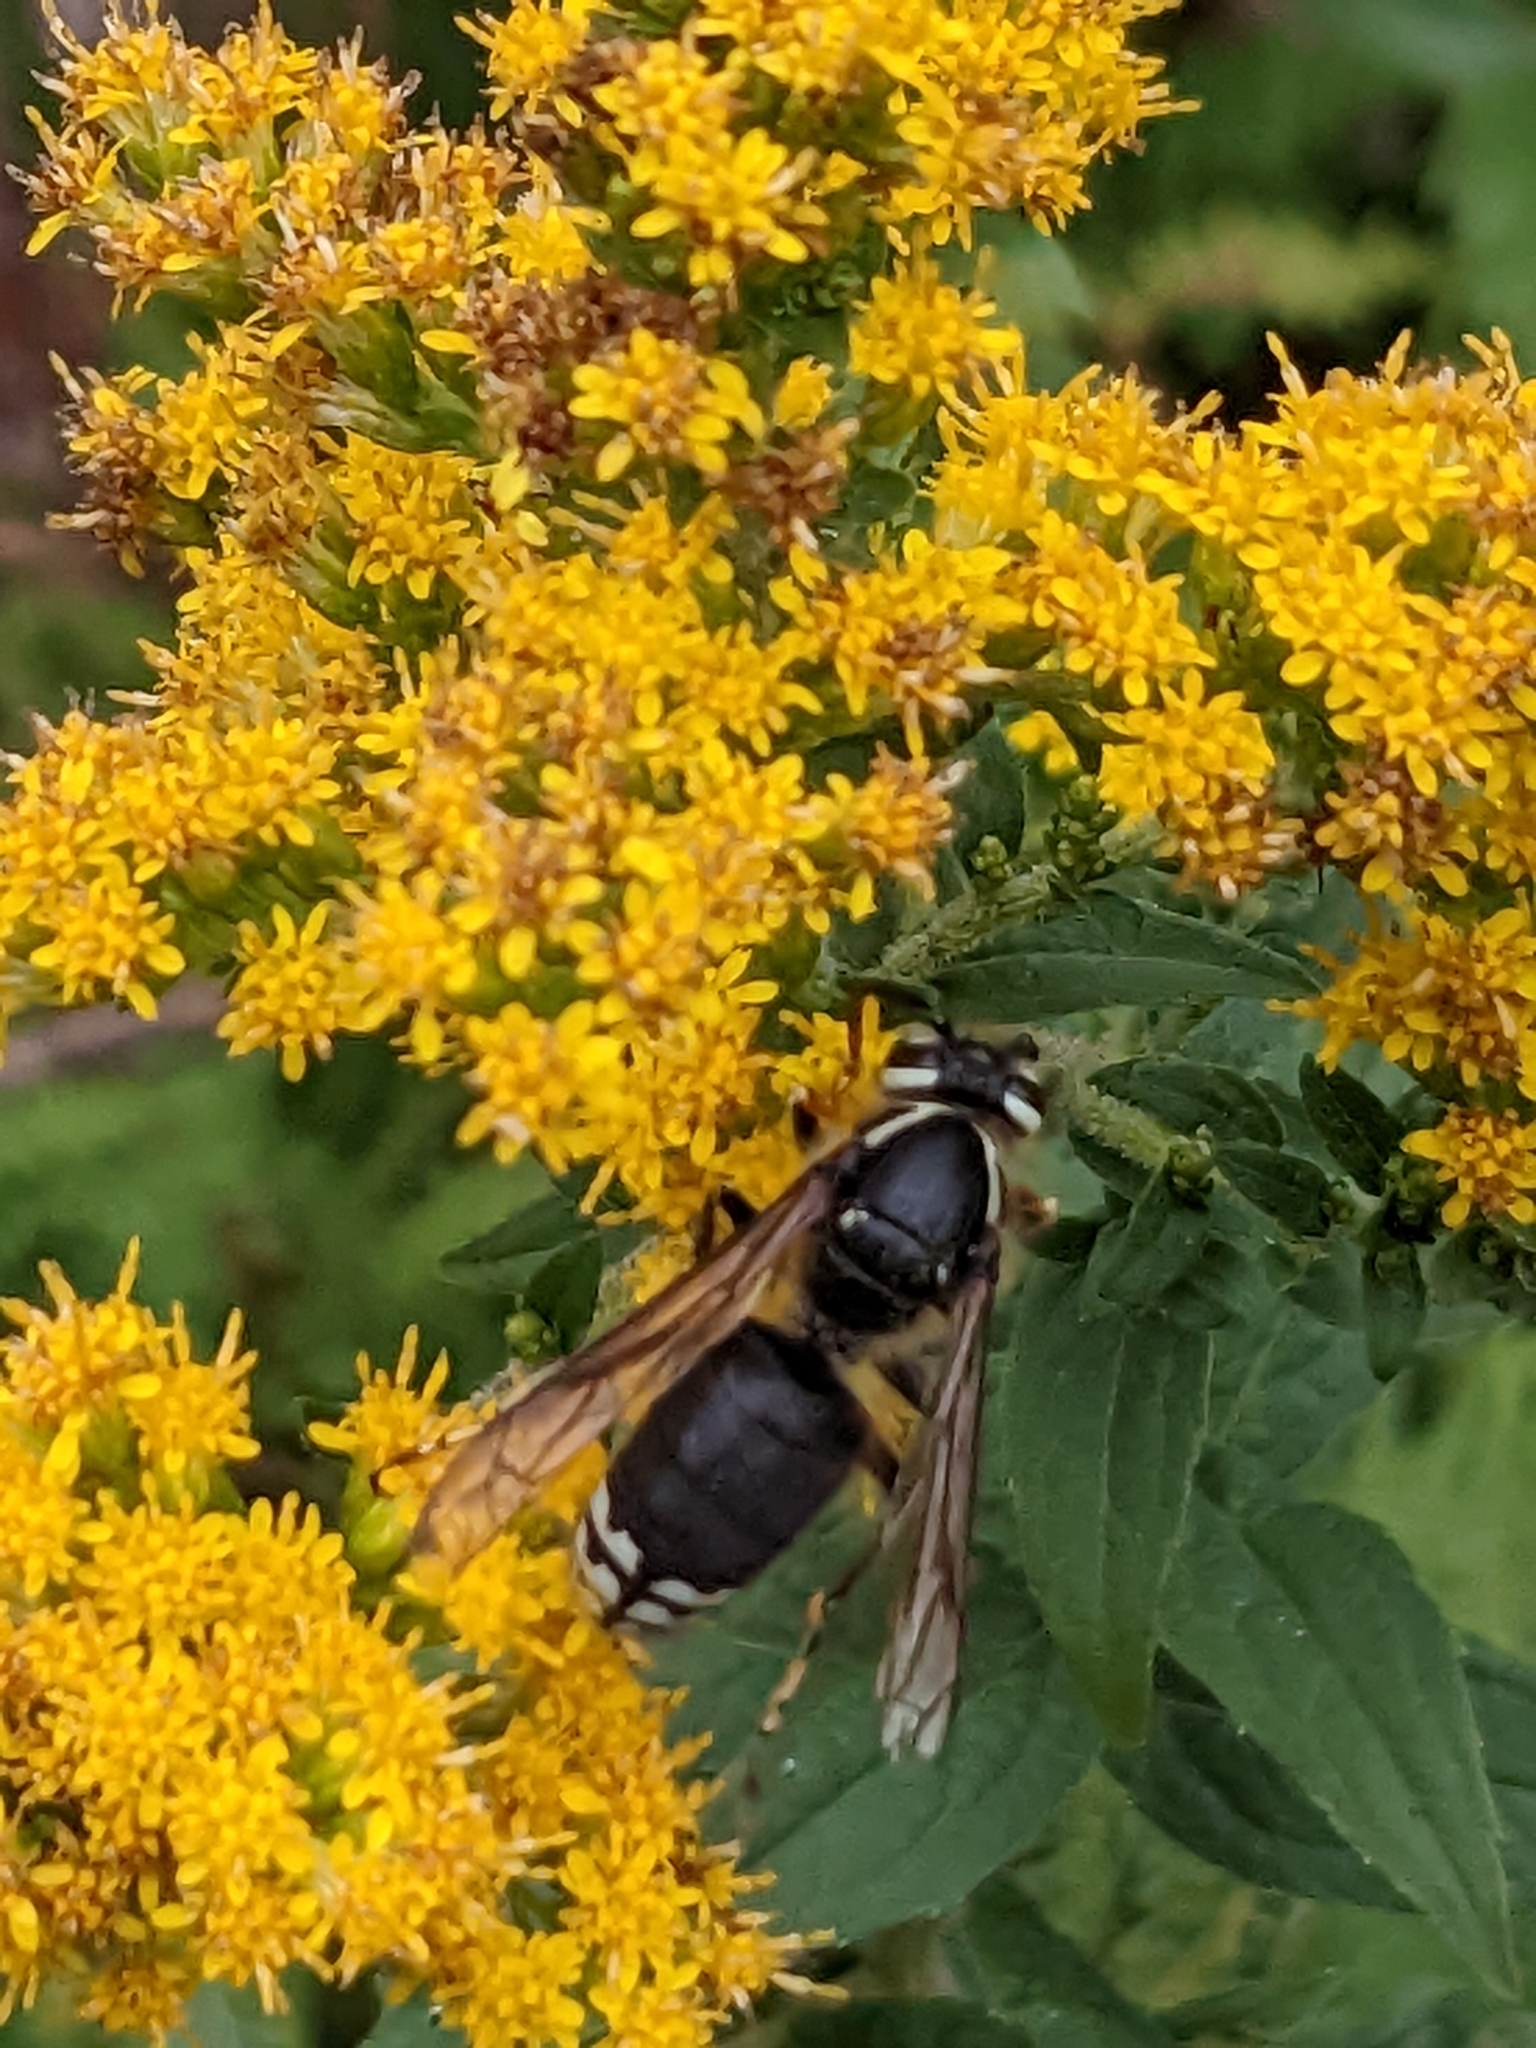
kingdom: Animalia
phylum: Arthropoda
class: Insecta
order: Hymenoptera
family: Vespidae
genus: Dolichovespula
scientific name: Dolichovespula maculata
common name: Bald-faced hornet
